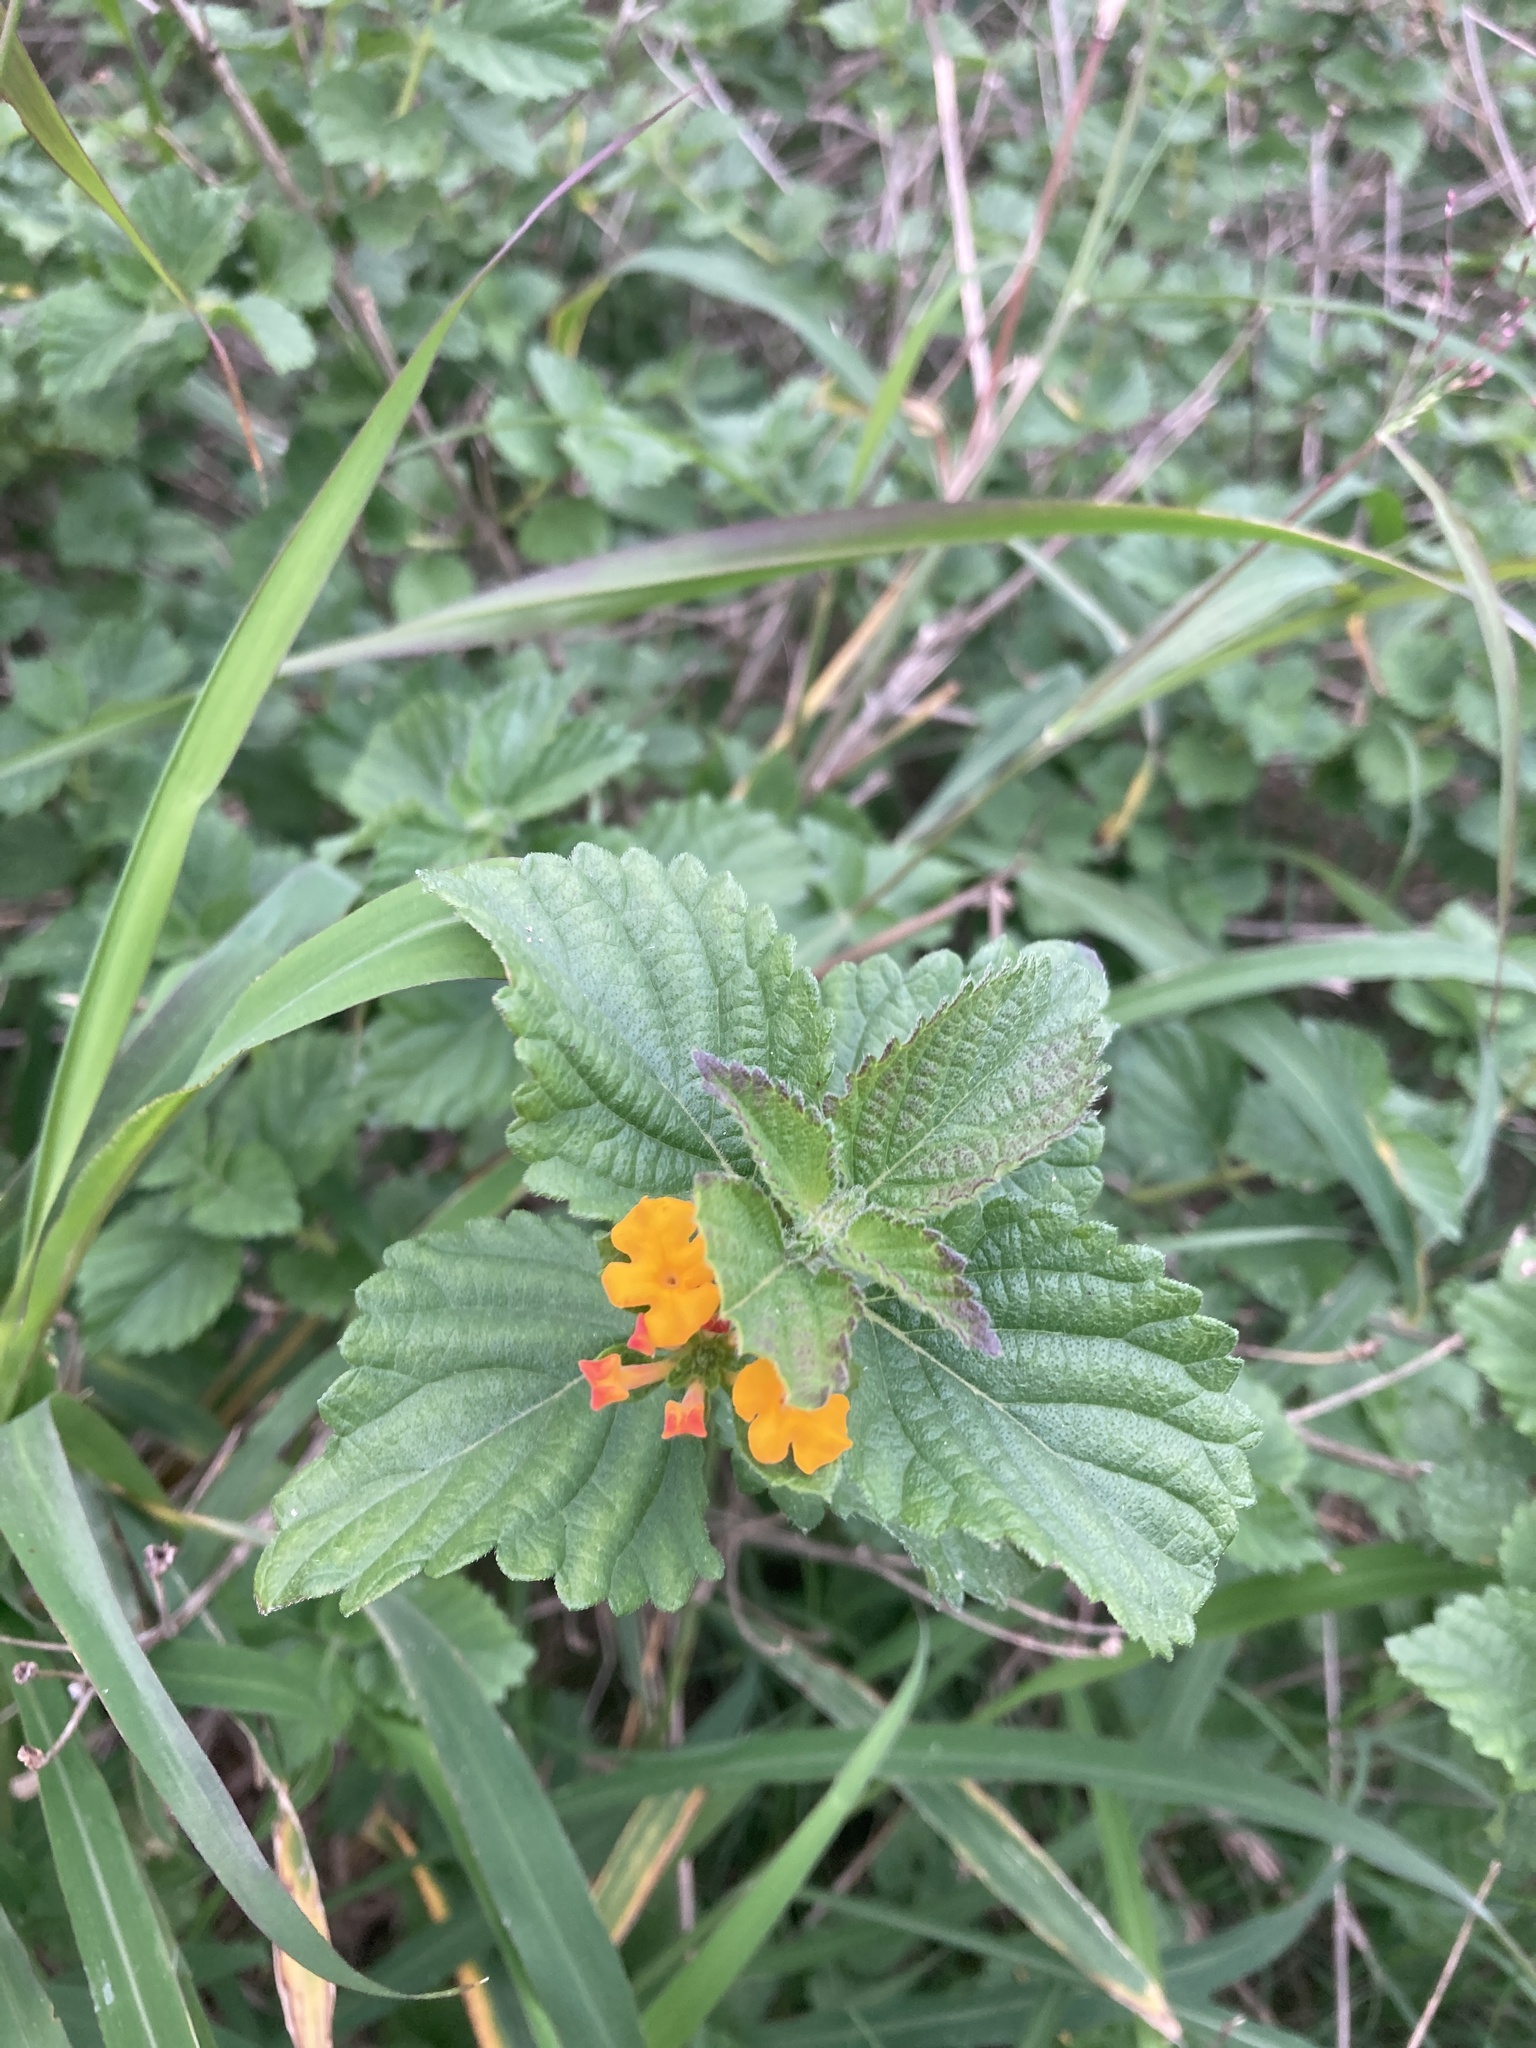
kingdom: Plantae
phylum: Tracheophyta
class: Magnoliopsida
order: Lamiales
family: Verbenaceae
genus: Lantana
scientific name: Lantana urticoides
